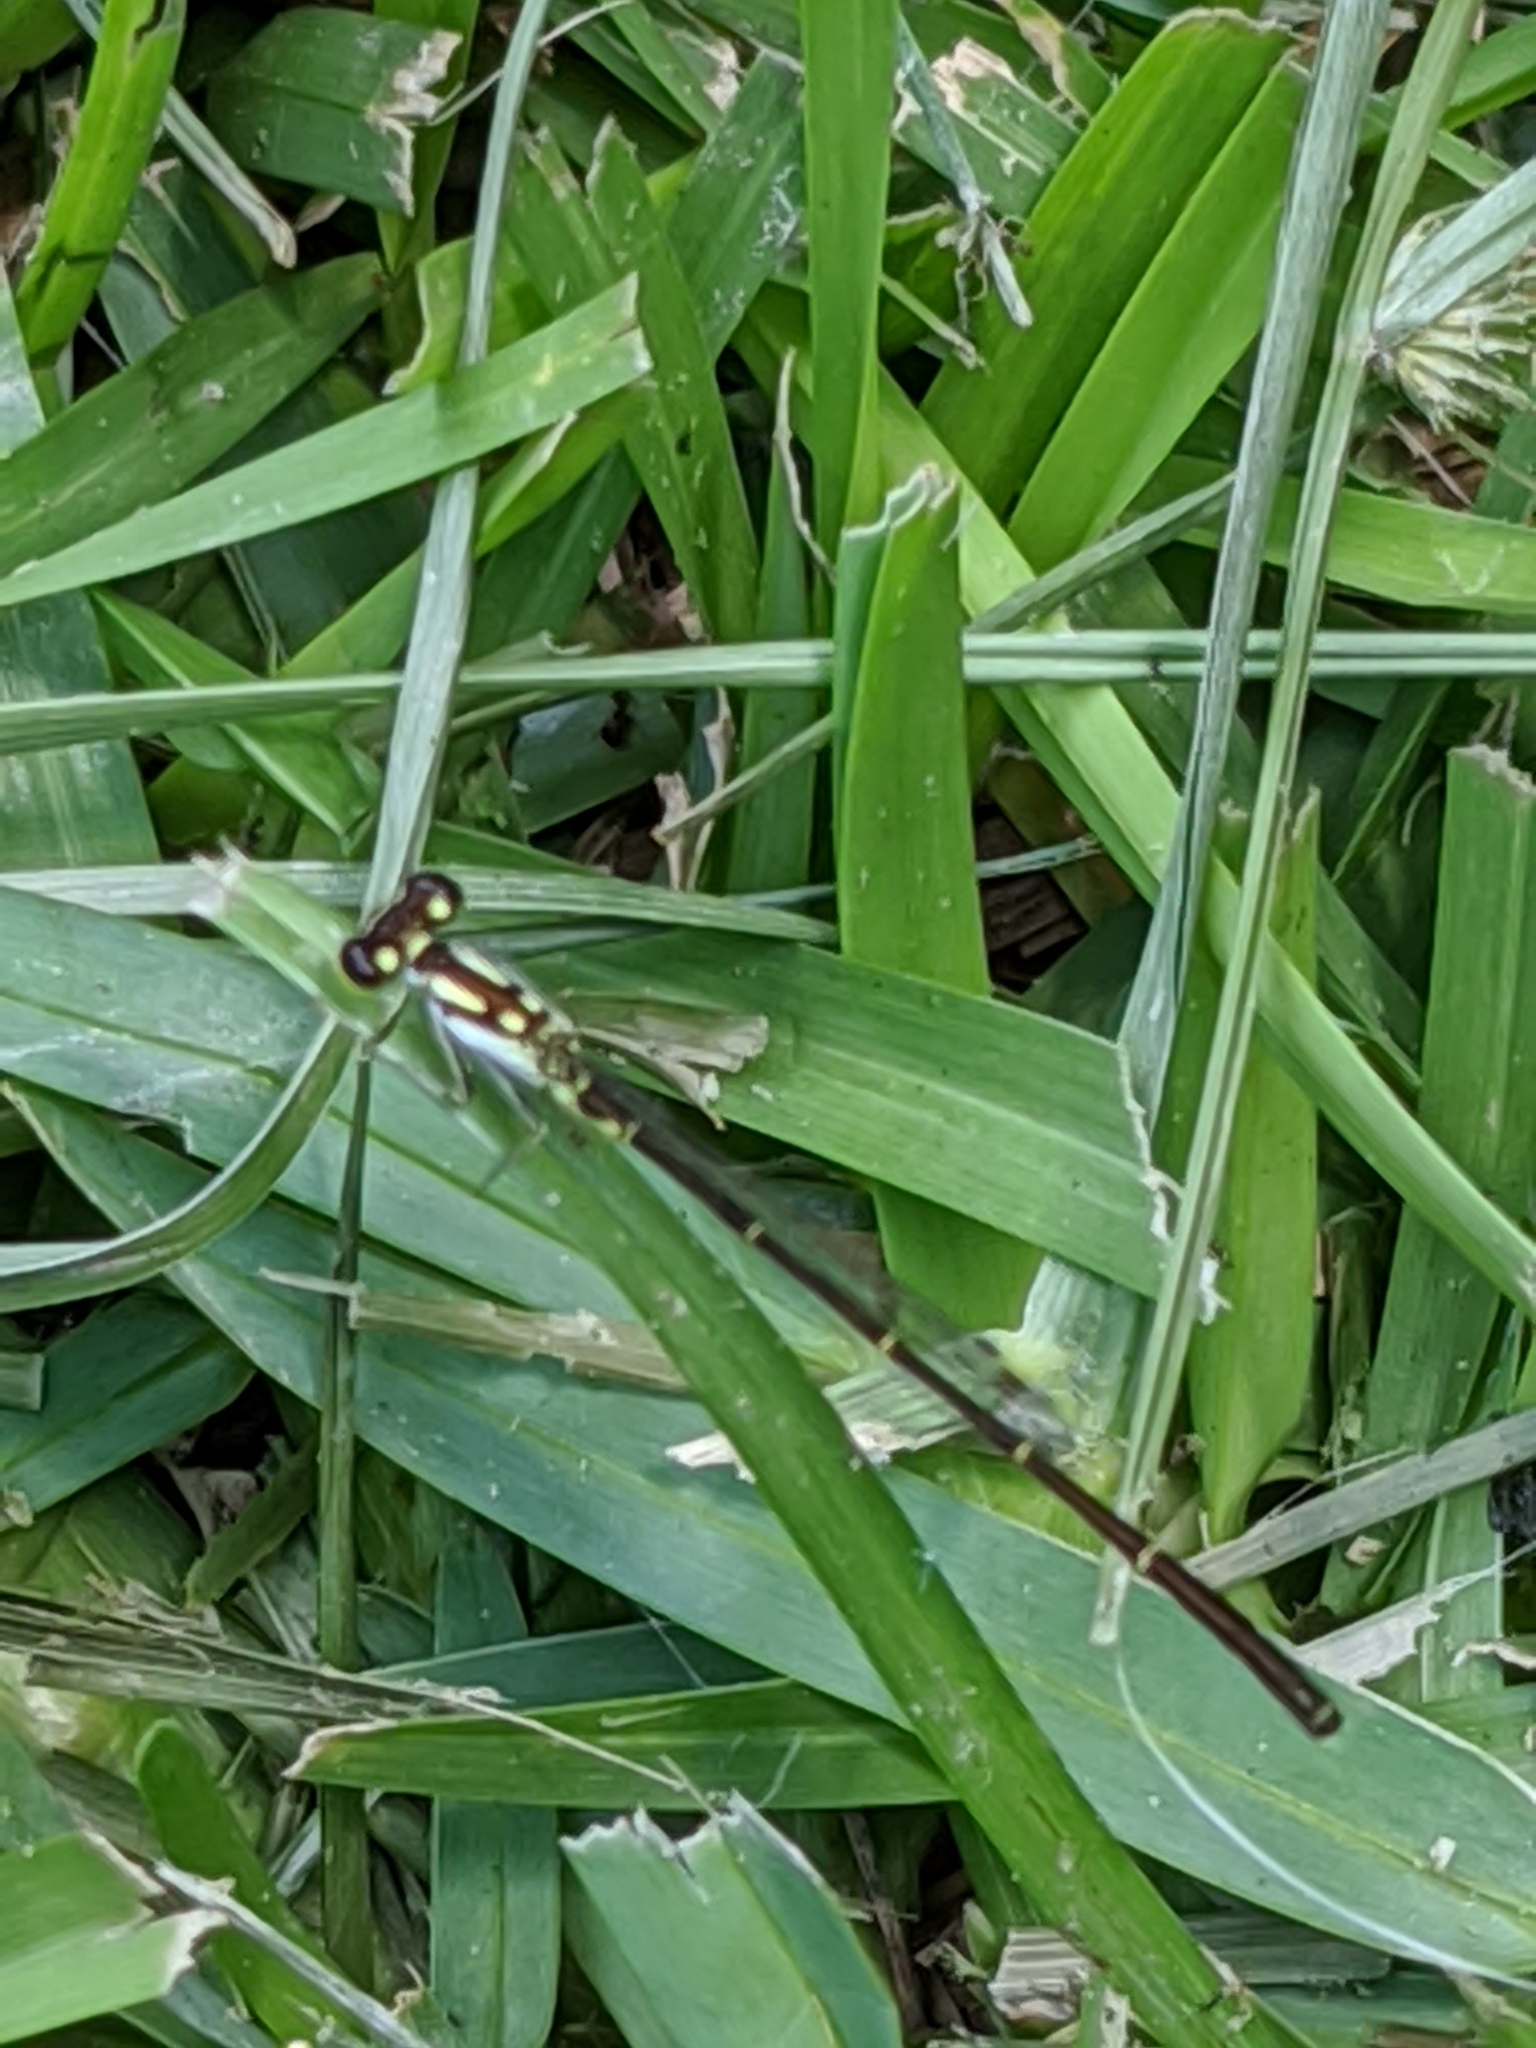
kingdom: Animalia
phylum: Arthropoda
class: Insecta
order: Odonata
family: Coenagrionidae
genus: Ischnura
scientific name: Ischnura posita
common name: Fragile forktail
